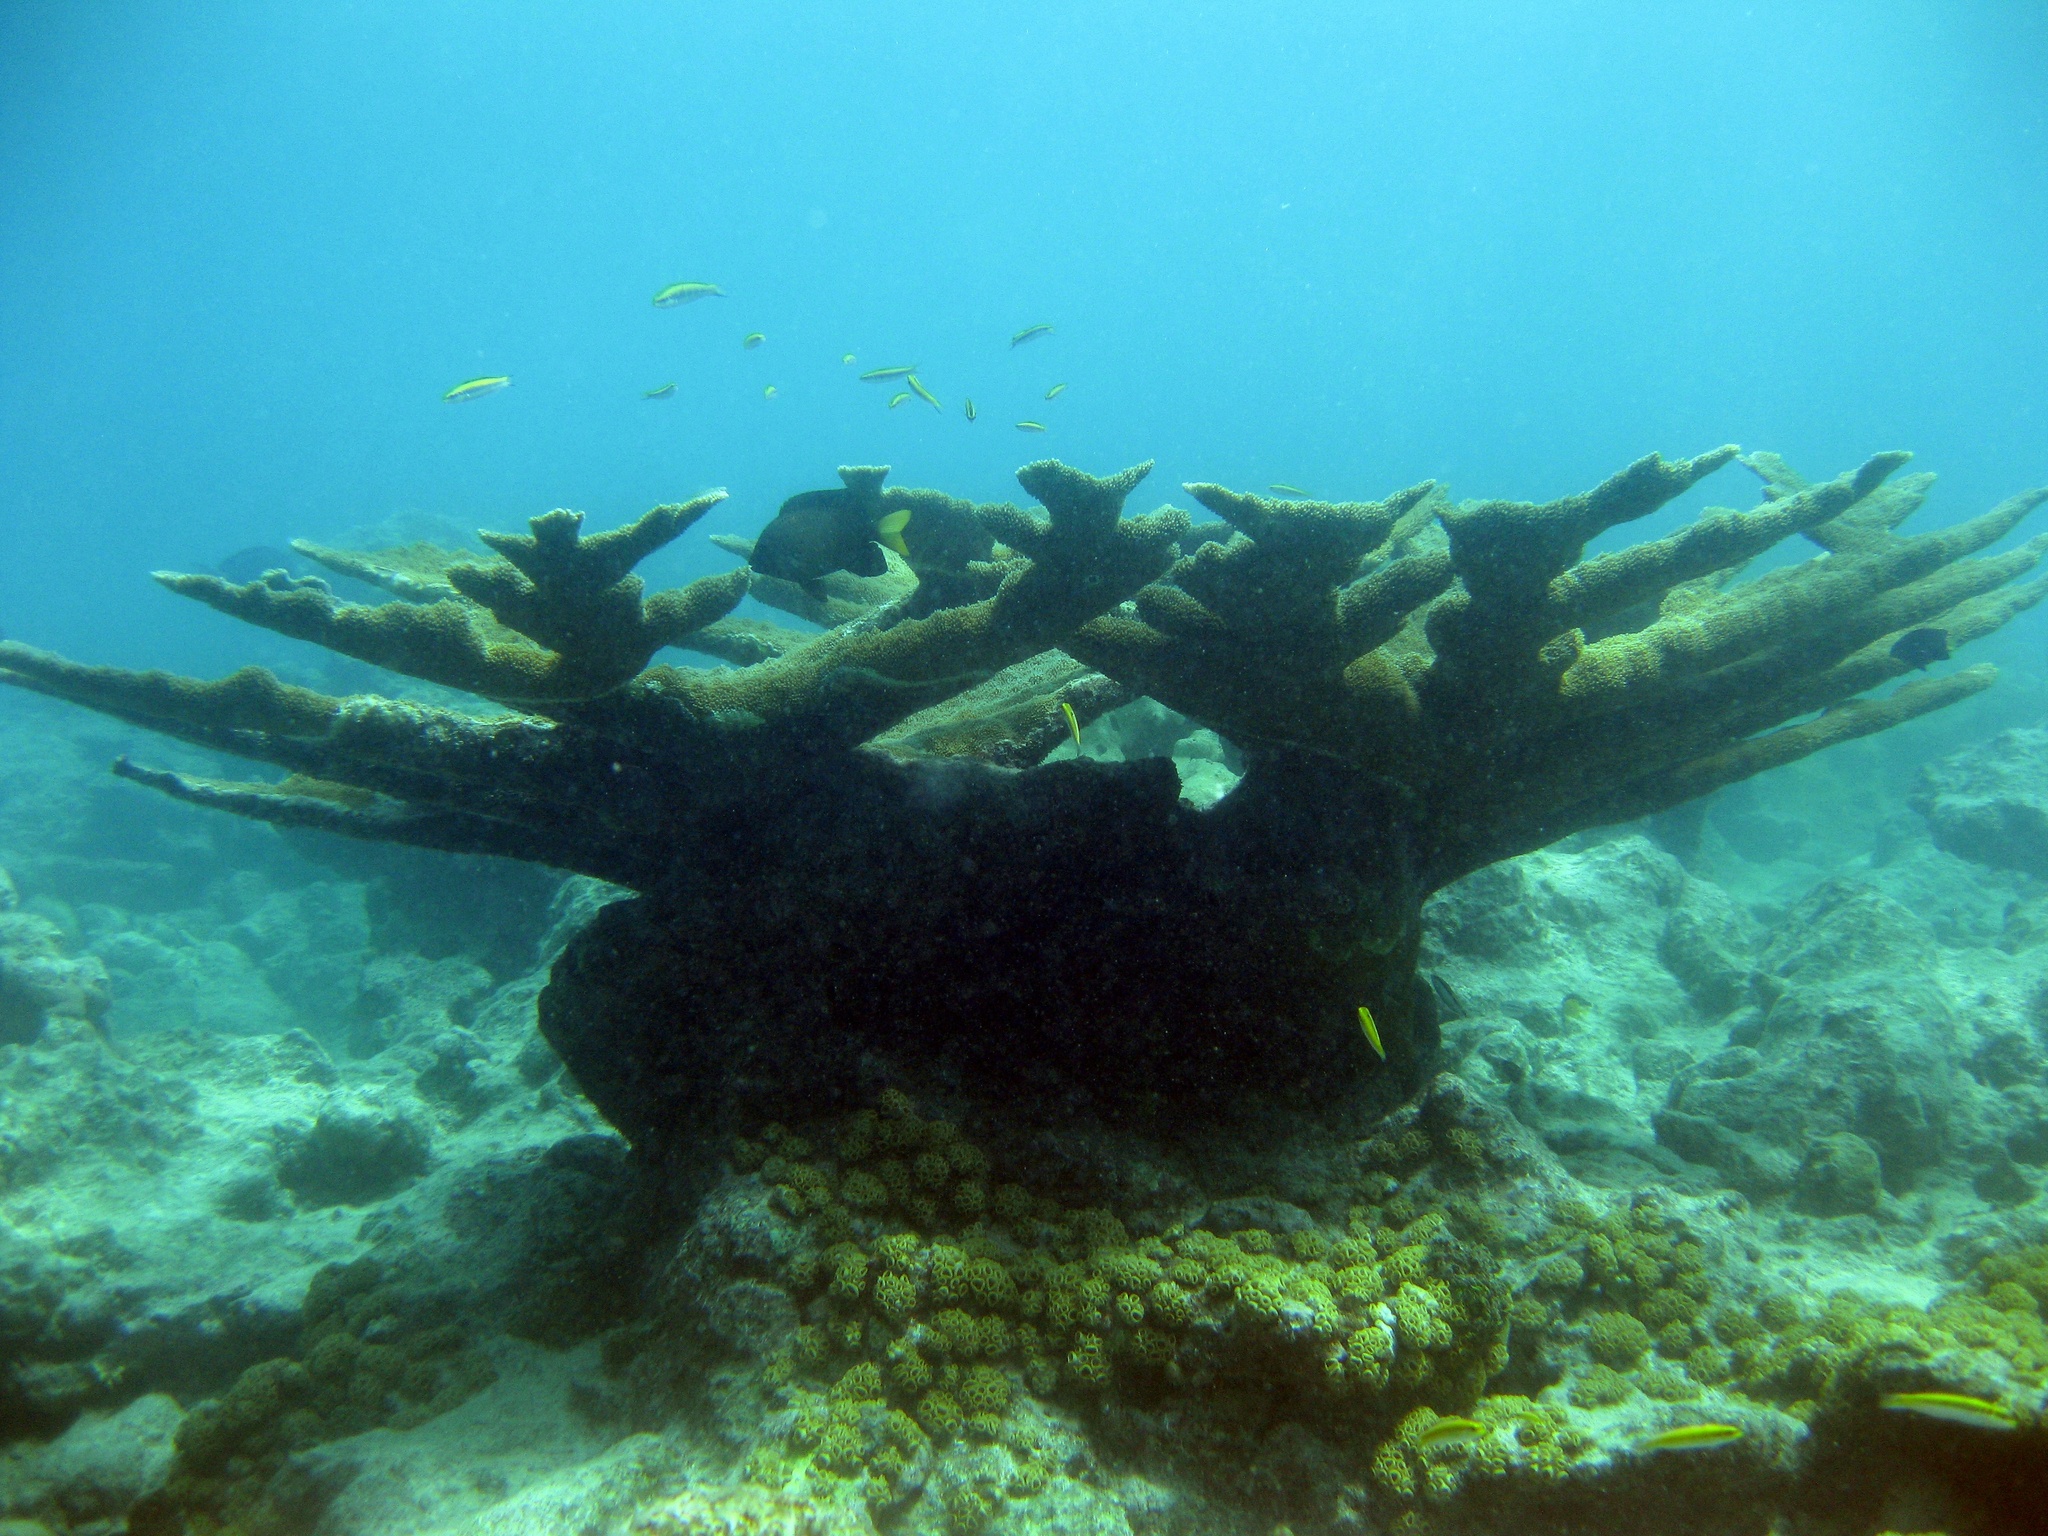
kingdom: Animalia
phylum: Cnidaria
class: Anthozoa
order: Scleractinia
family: Acroporidae
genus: Acropora
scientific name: Acropora palmata
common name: Elkhorn coral
